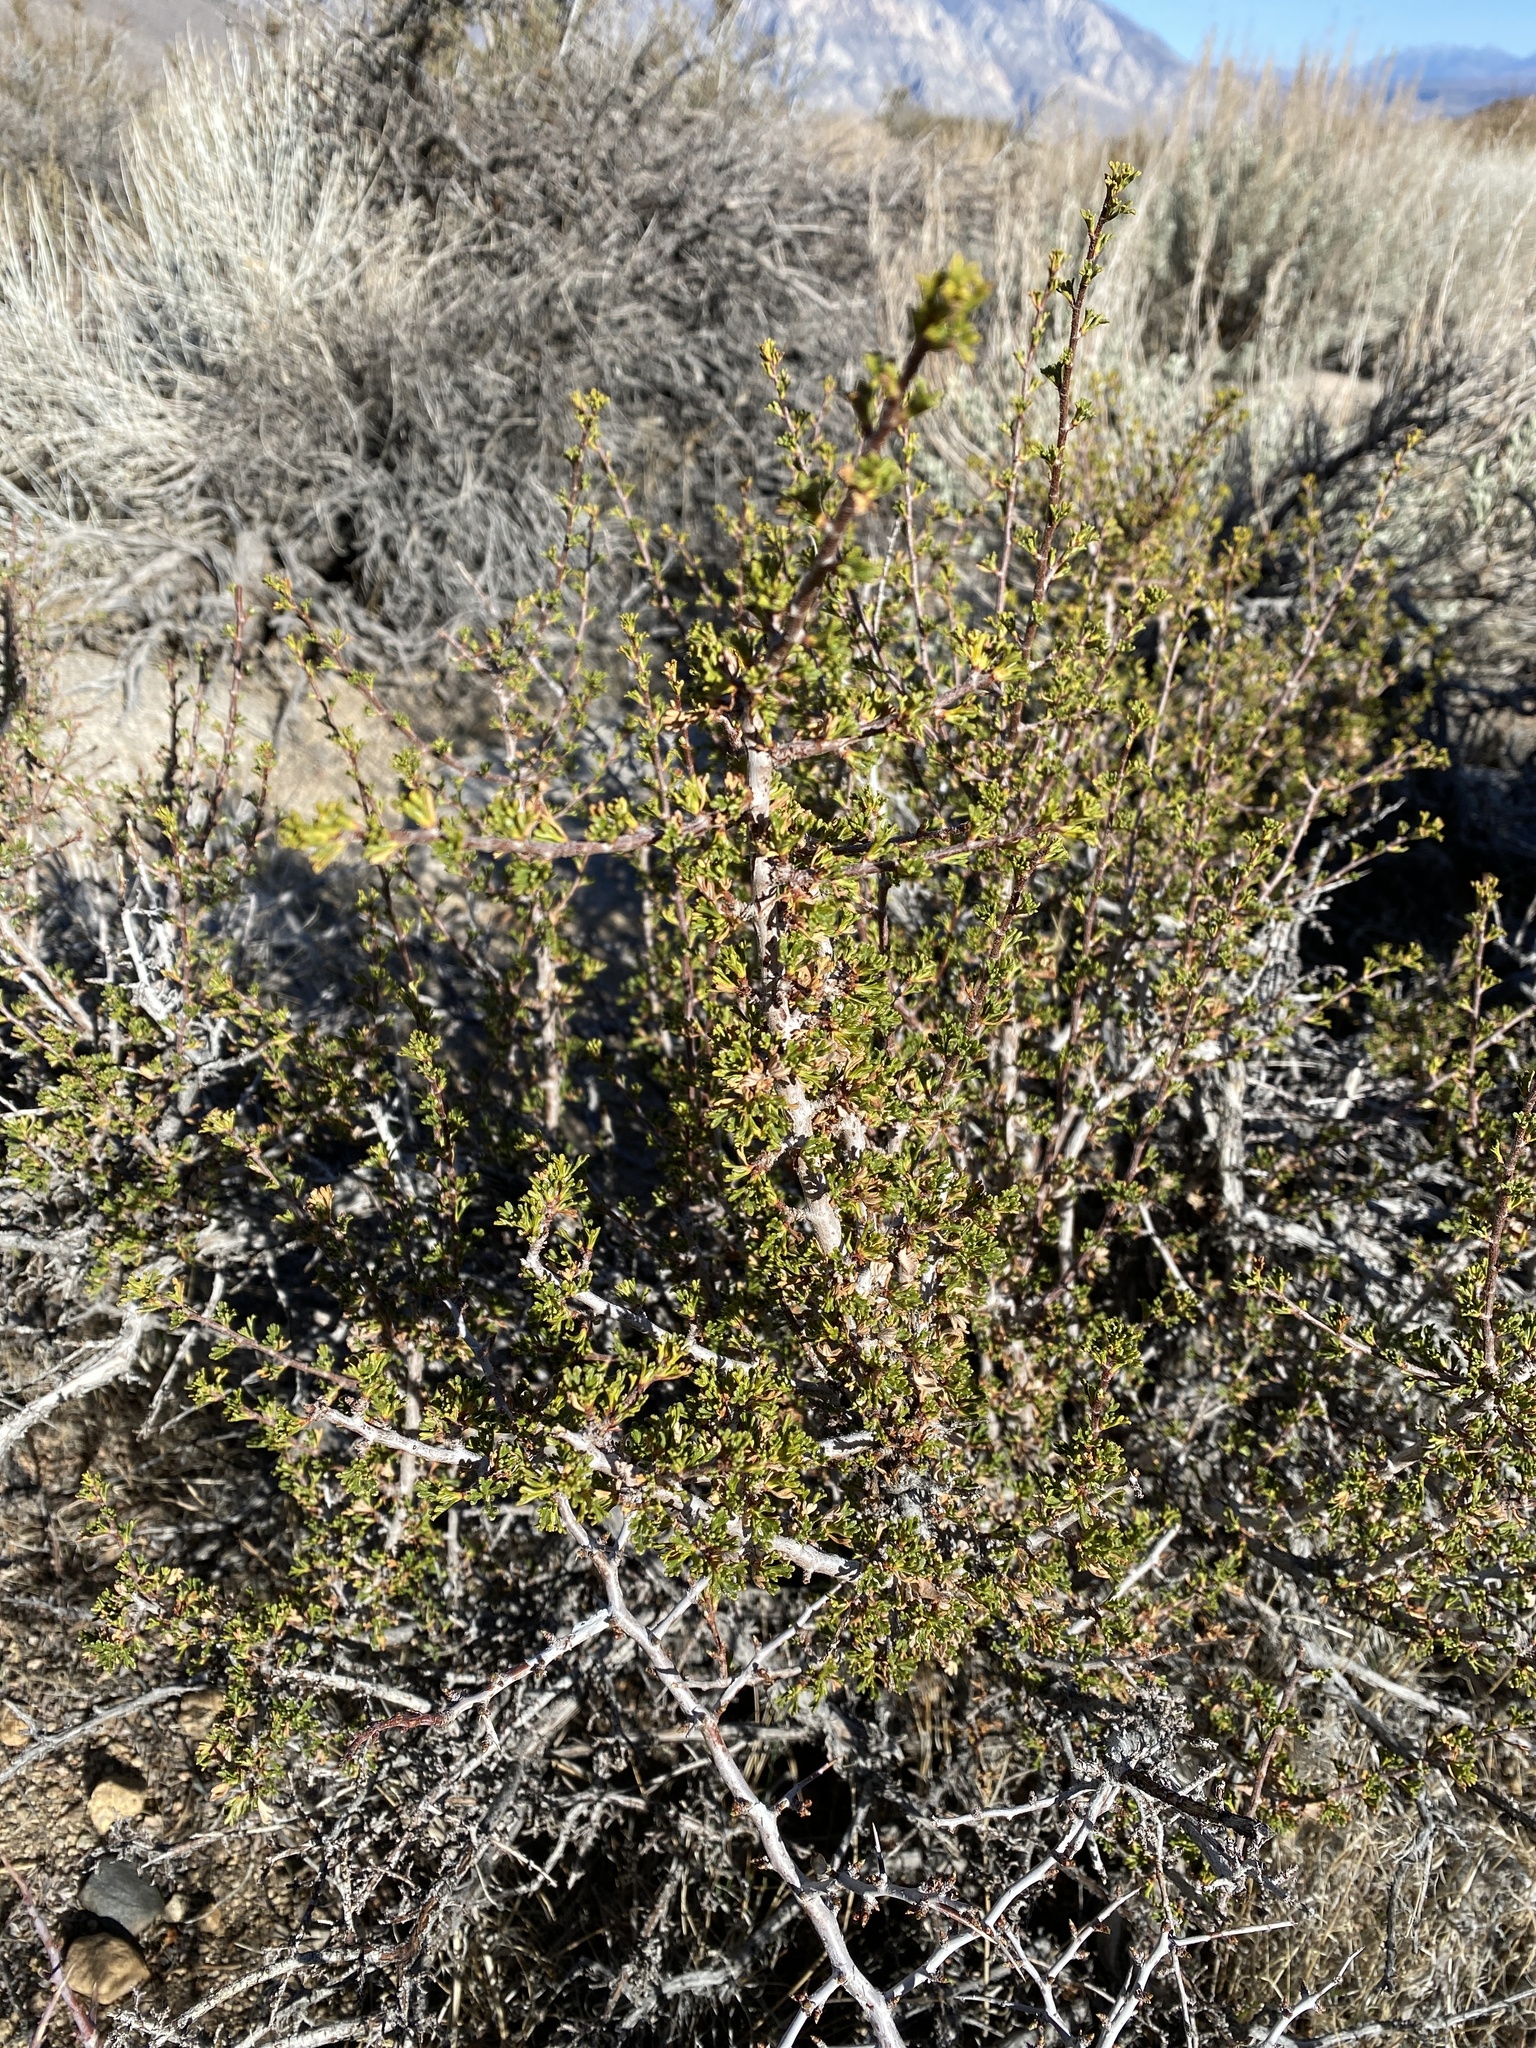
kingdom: Plantae
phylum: Tracheophyta
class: Magnoliopsida
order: Rosales
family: Rosaceae
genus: Purshia
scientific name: Purshia tridentata
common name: Antelope bitterbrush
